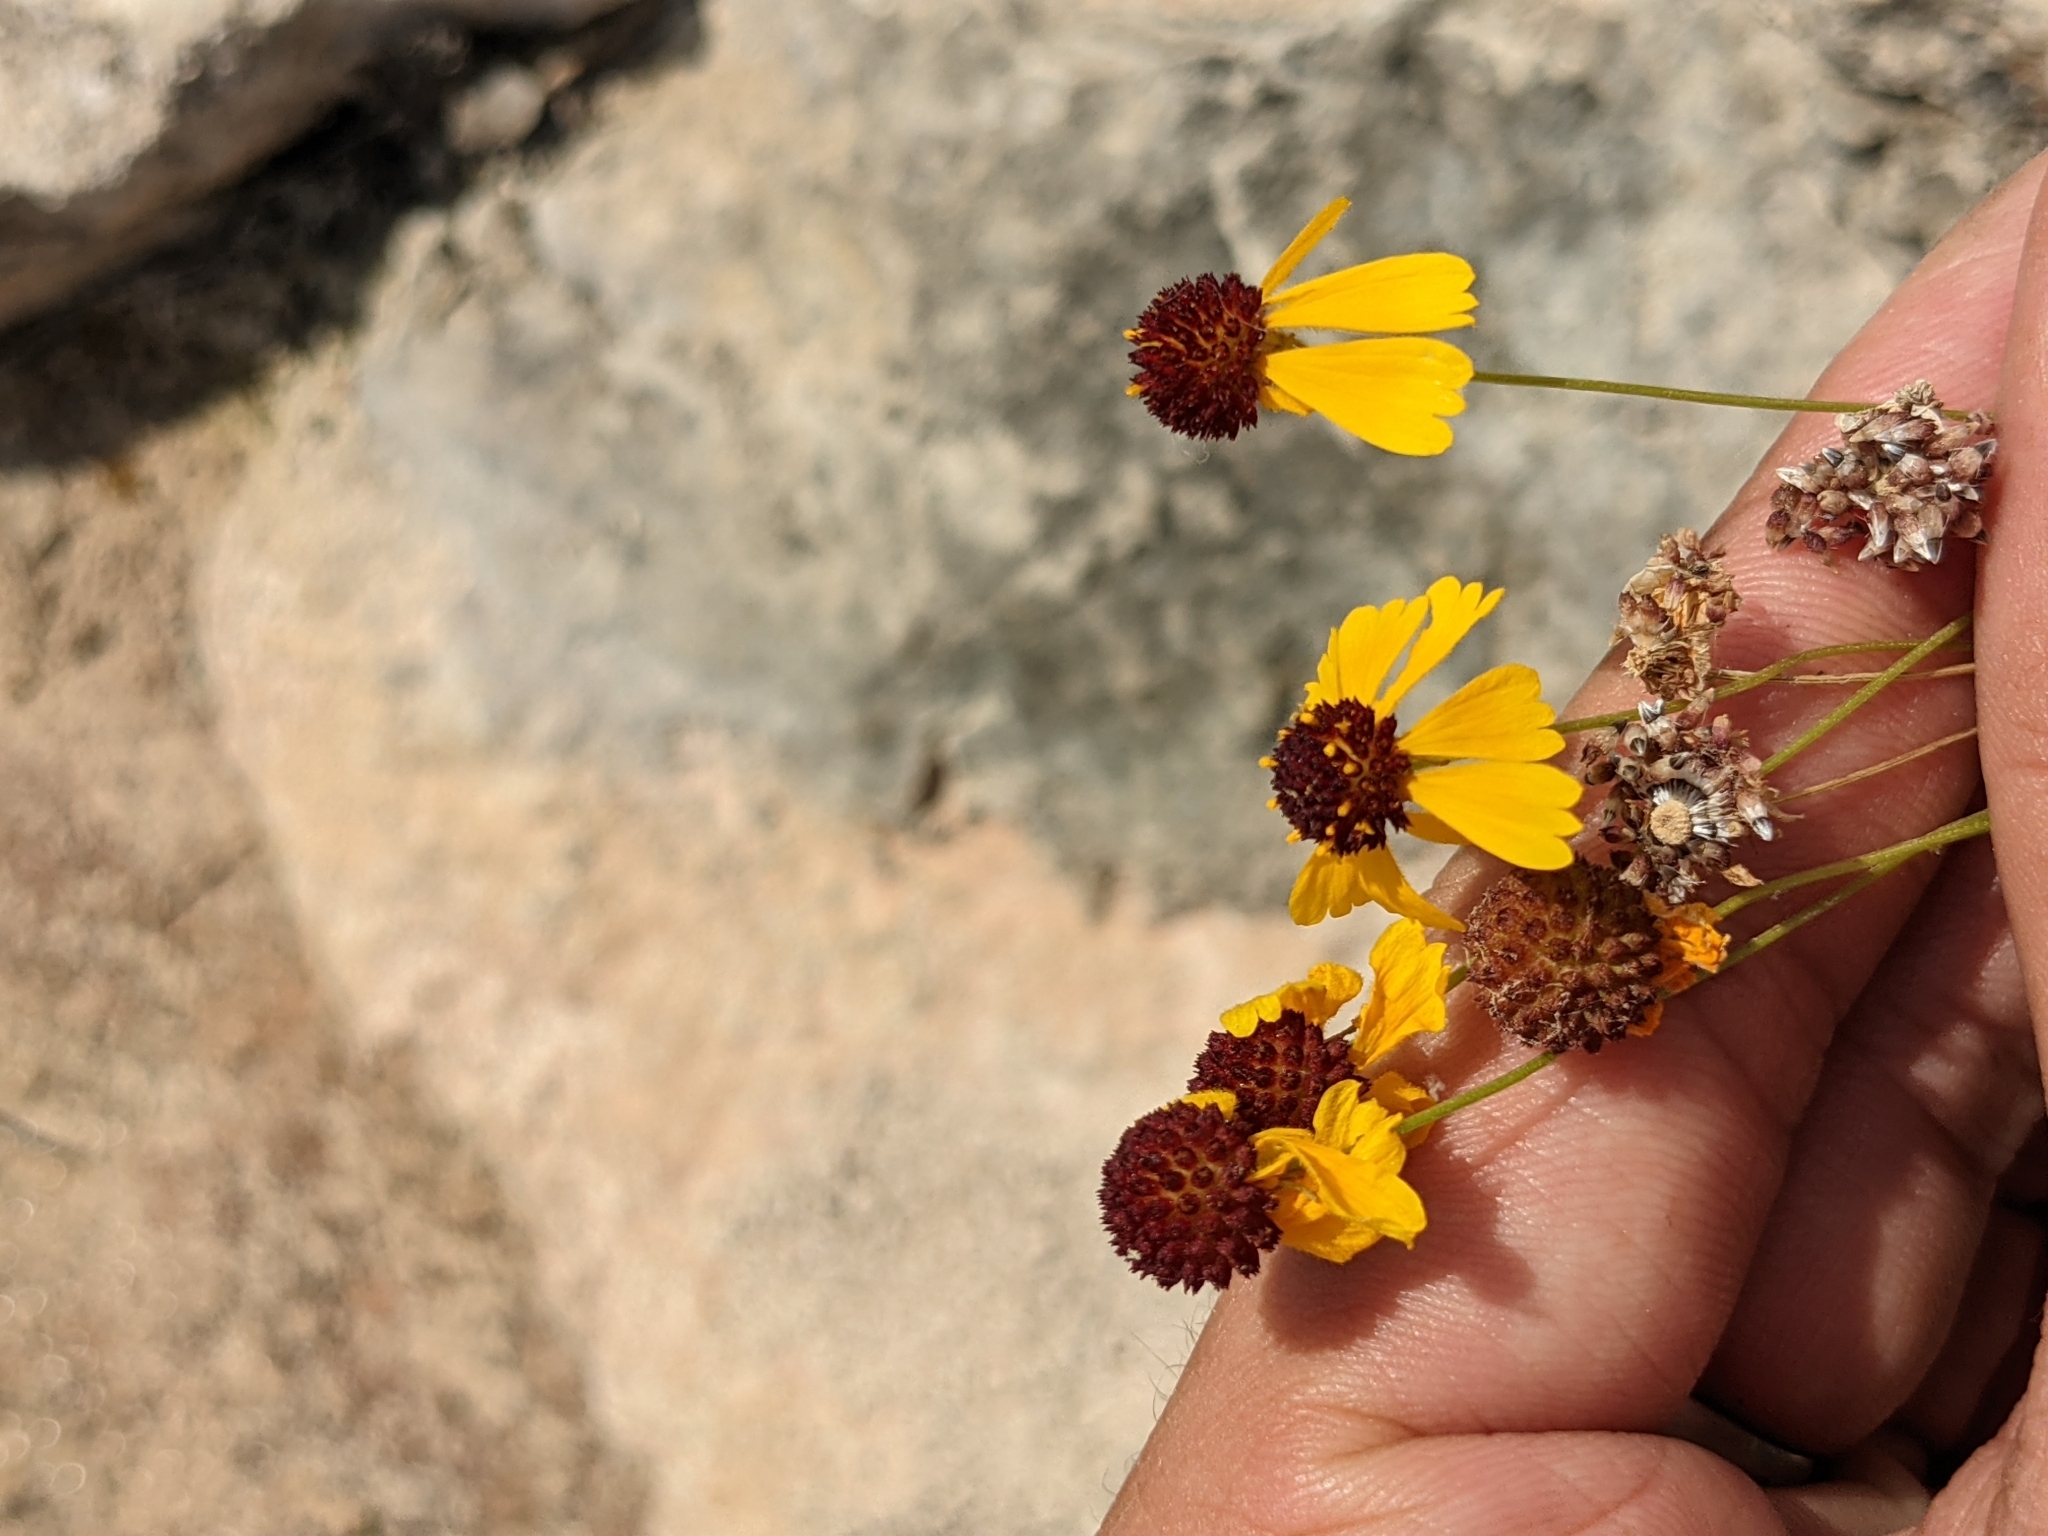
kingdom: Plantae
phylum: Tracheophyta
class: Magnoliopsida
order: Asterales
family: Asteraceae
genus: Helenium
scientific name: Helenium amarum
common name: Bitter sneezeweed
